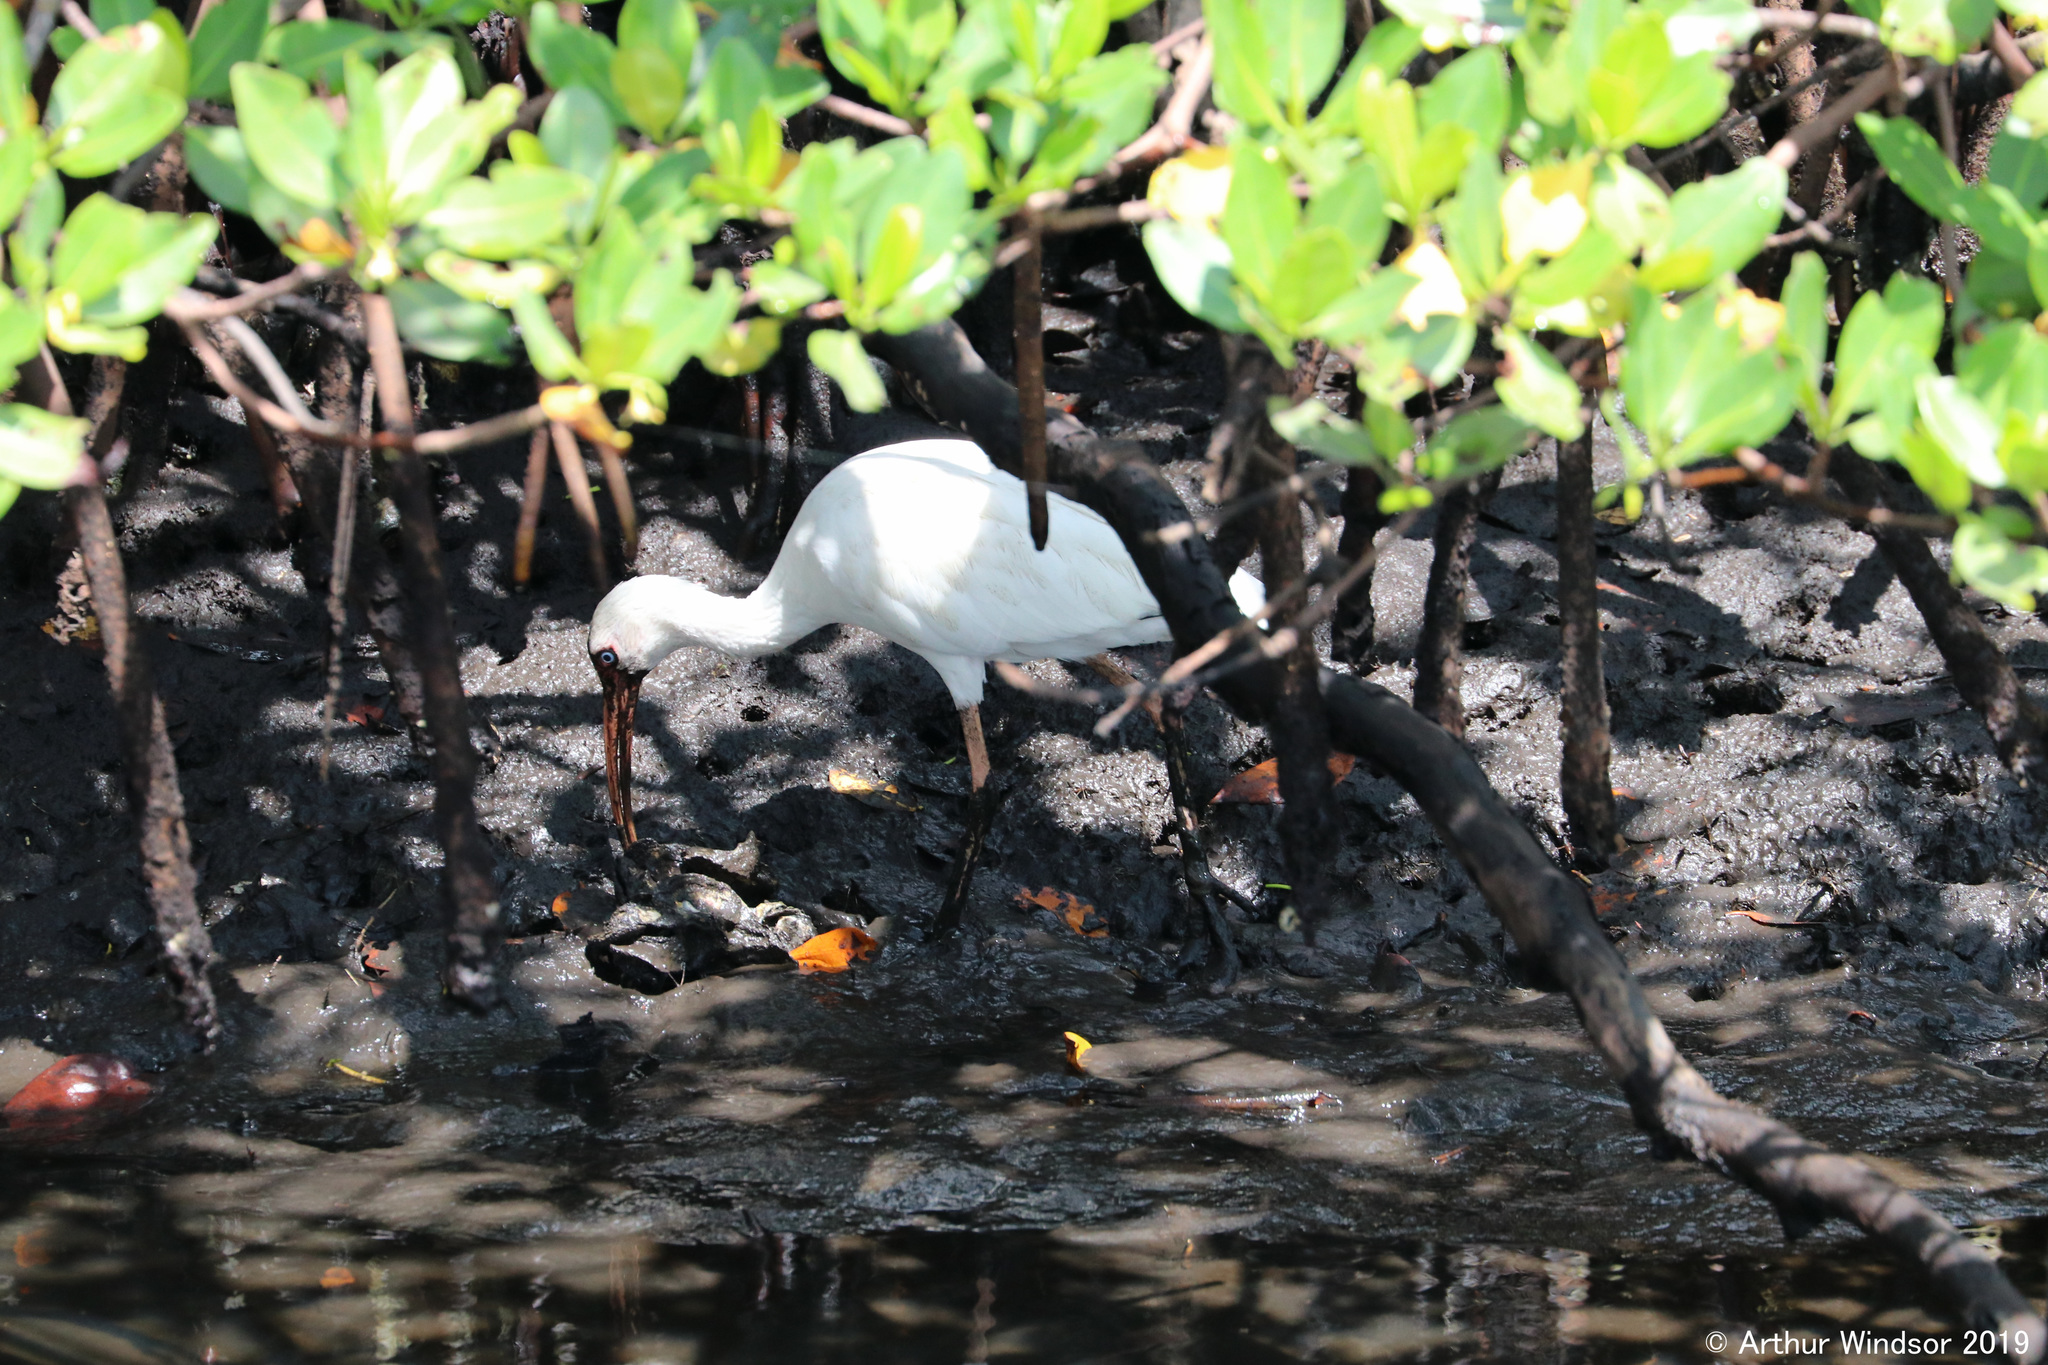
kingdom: Animalia
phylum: Chordata
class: Aves
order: Pelecaniformes
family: Threskiornithidae
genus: Eudocimus
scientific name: Eudocimus albus
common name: White ibis
